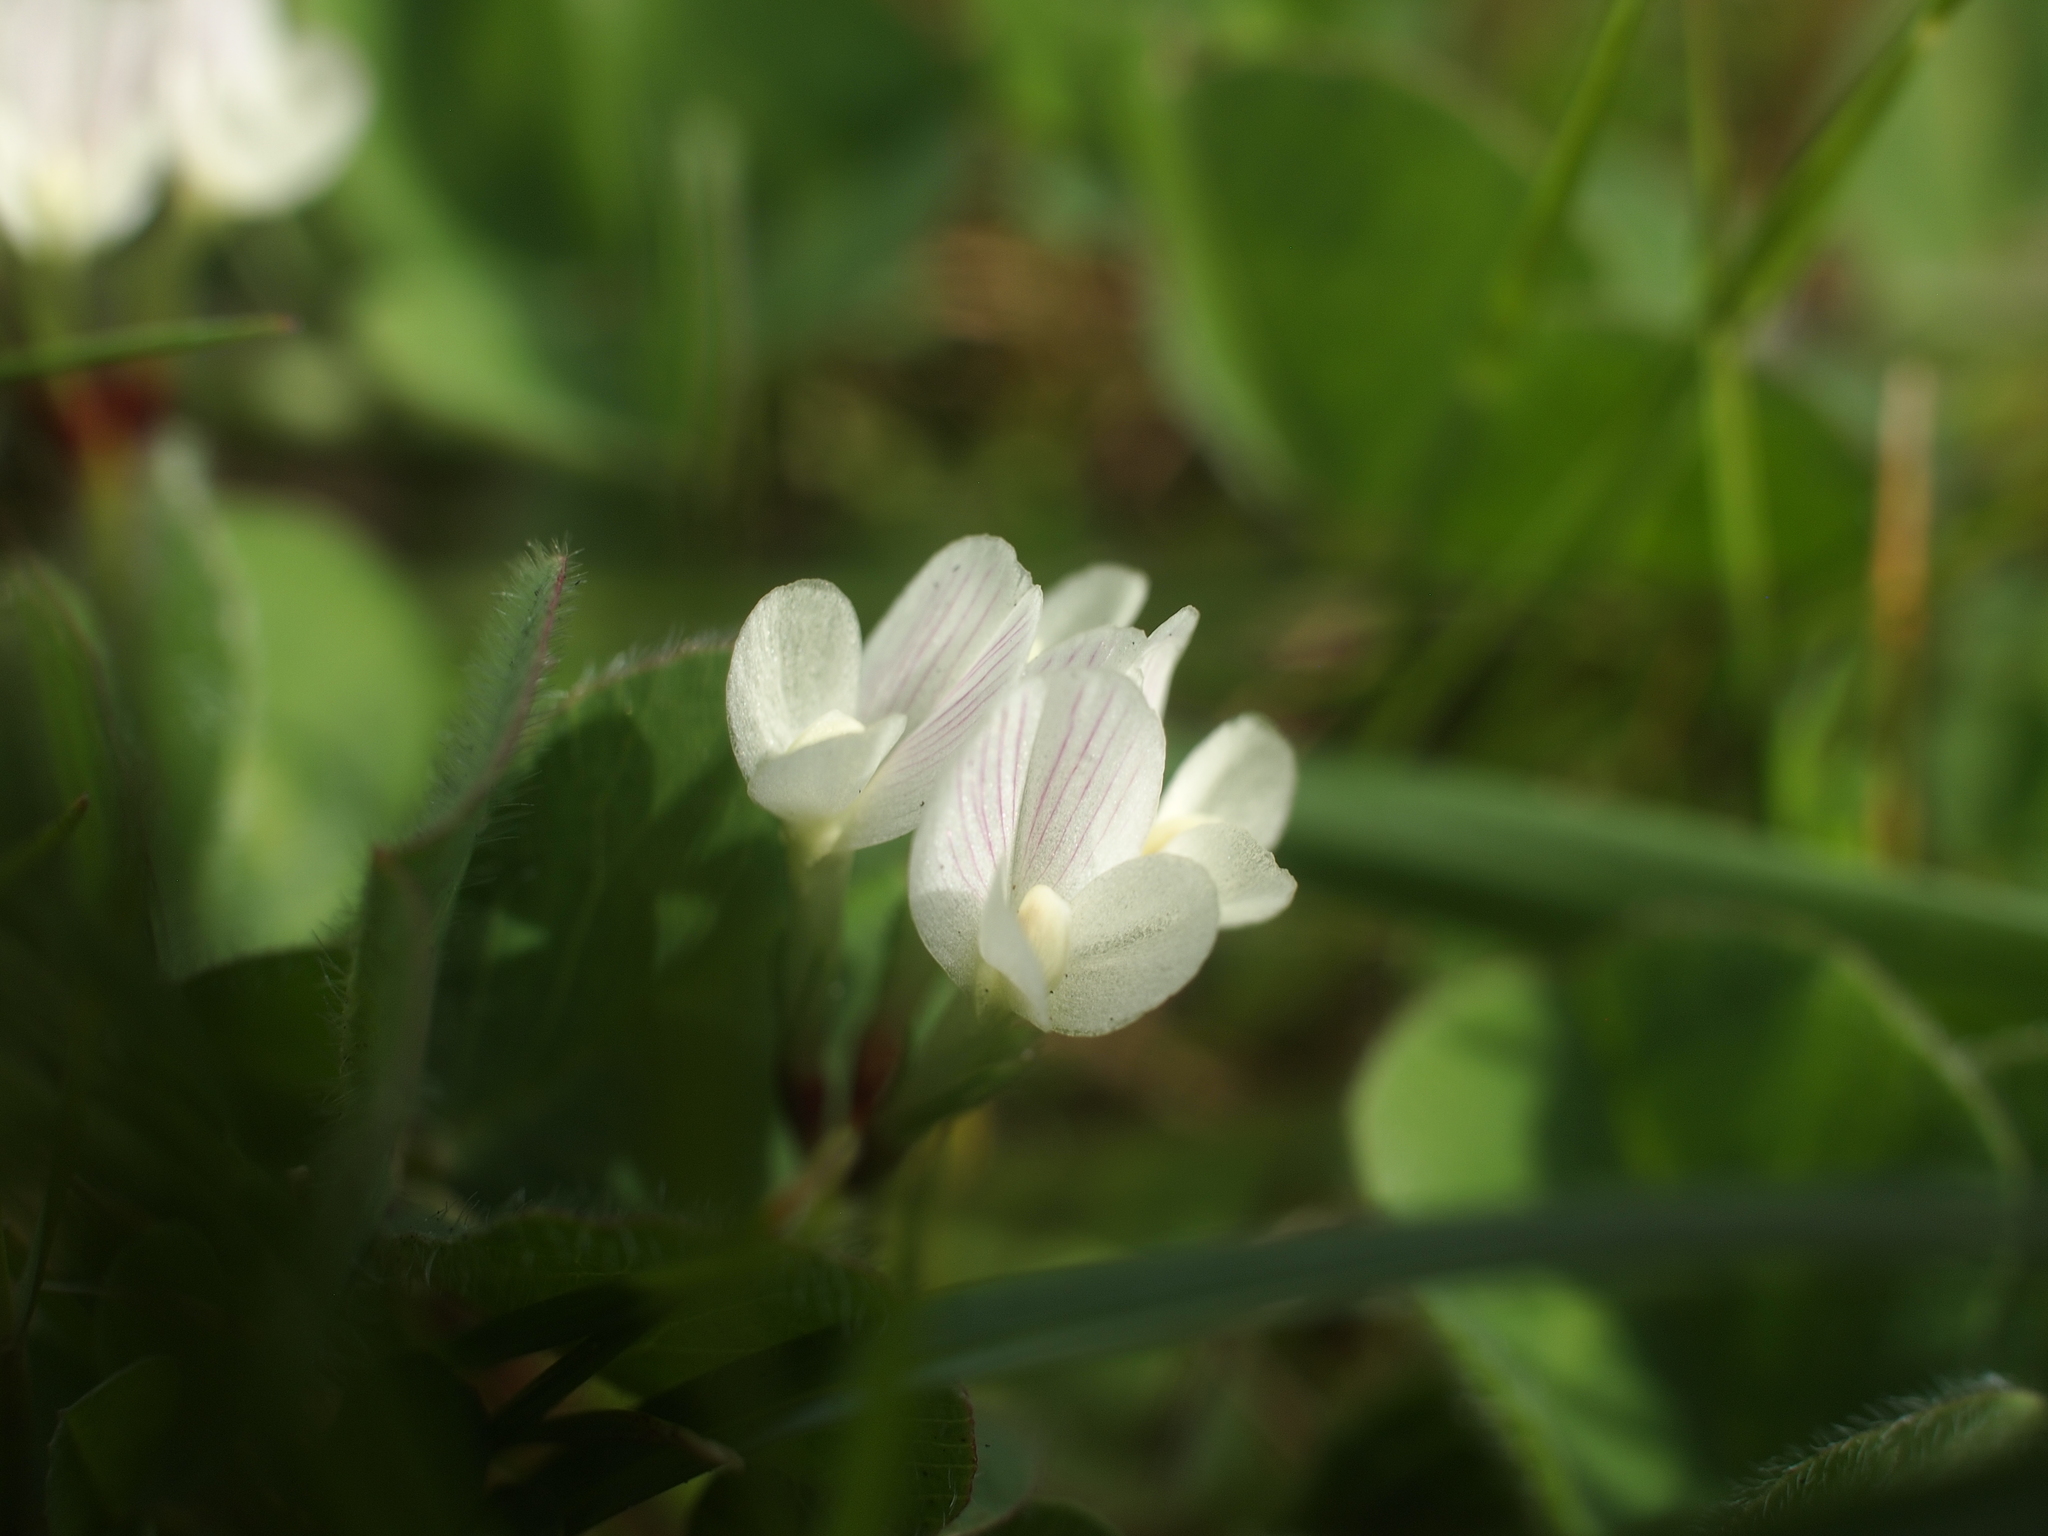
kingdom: Plantae
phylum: Tracheophyta
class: Magnoliopsida
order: Fabales
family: Fabaceae
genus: Trifolium
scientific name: Trifolium subterraneum
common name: Subterranean clover
